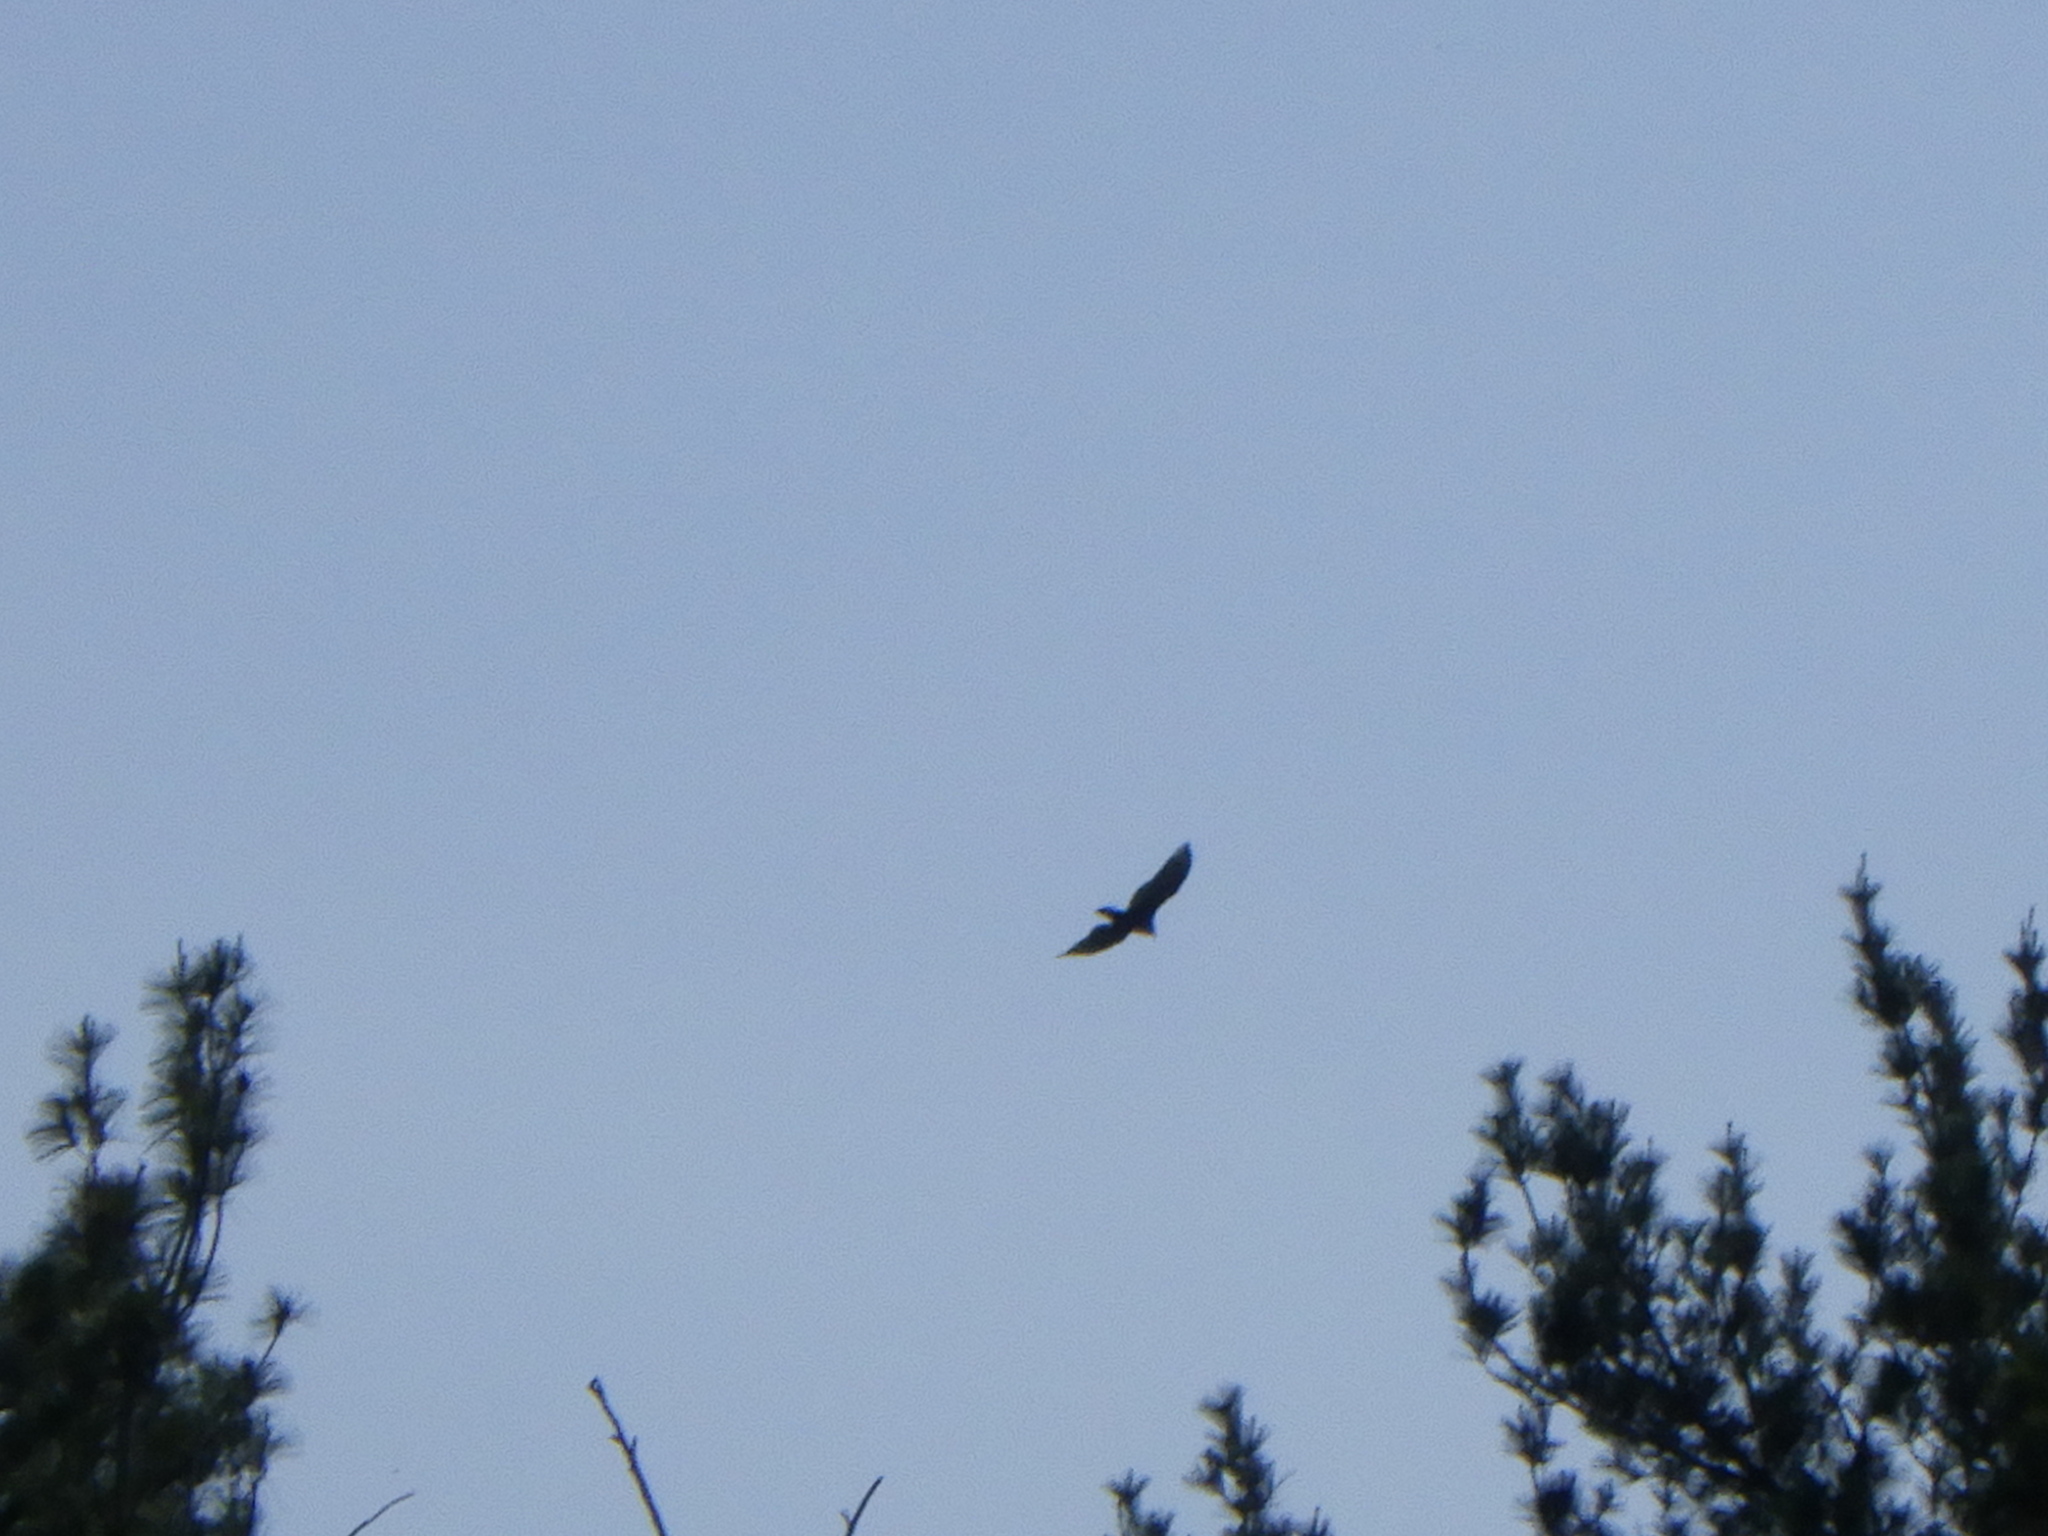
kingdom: Animalia
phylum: Chordata
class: Aves
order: Accipitriformes
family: Cathartidae
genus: Cathartes
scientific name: Cathartes aura
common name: Turkey vulture
